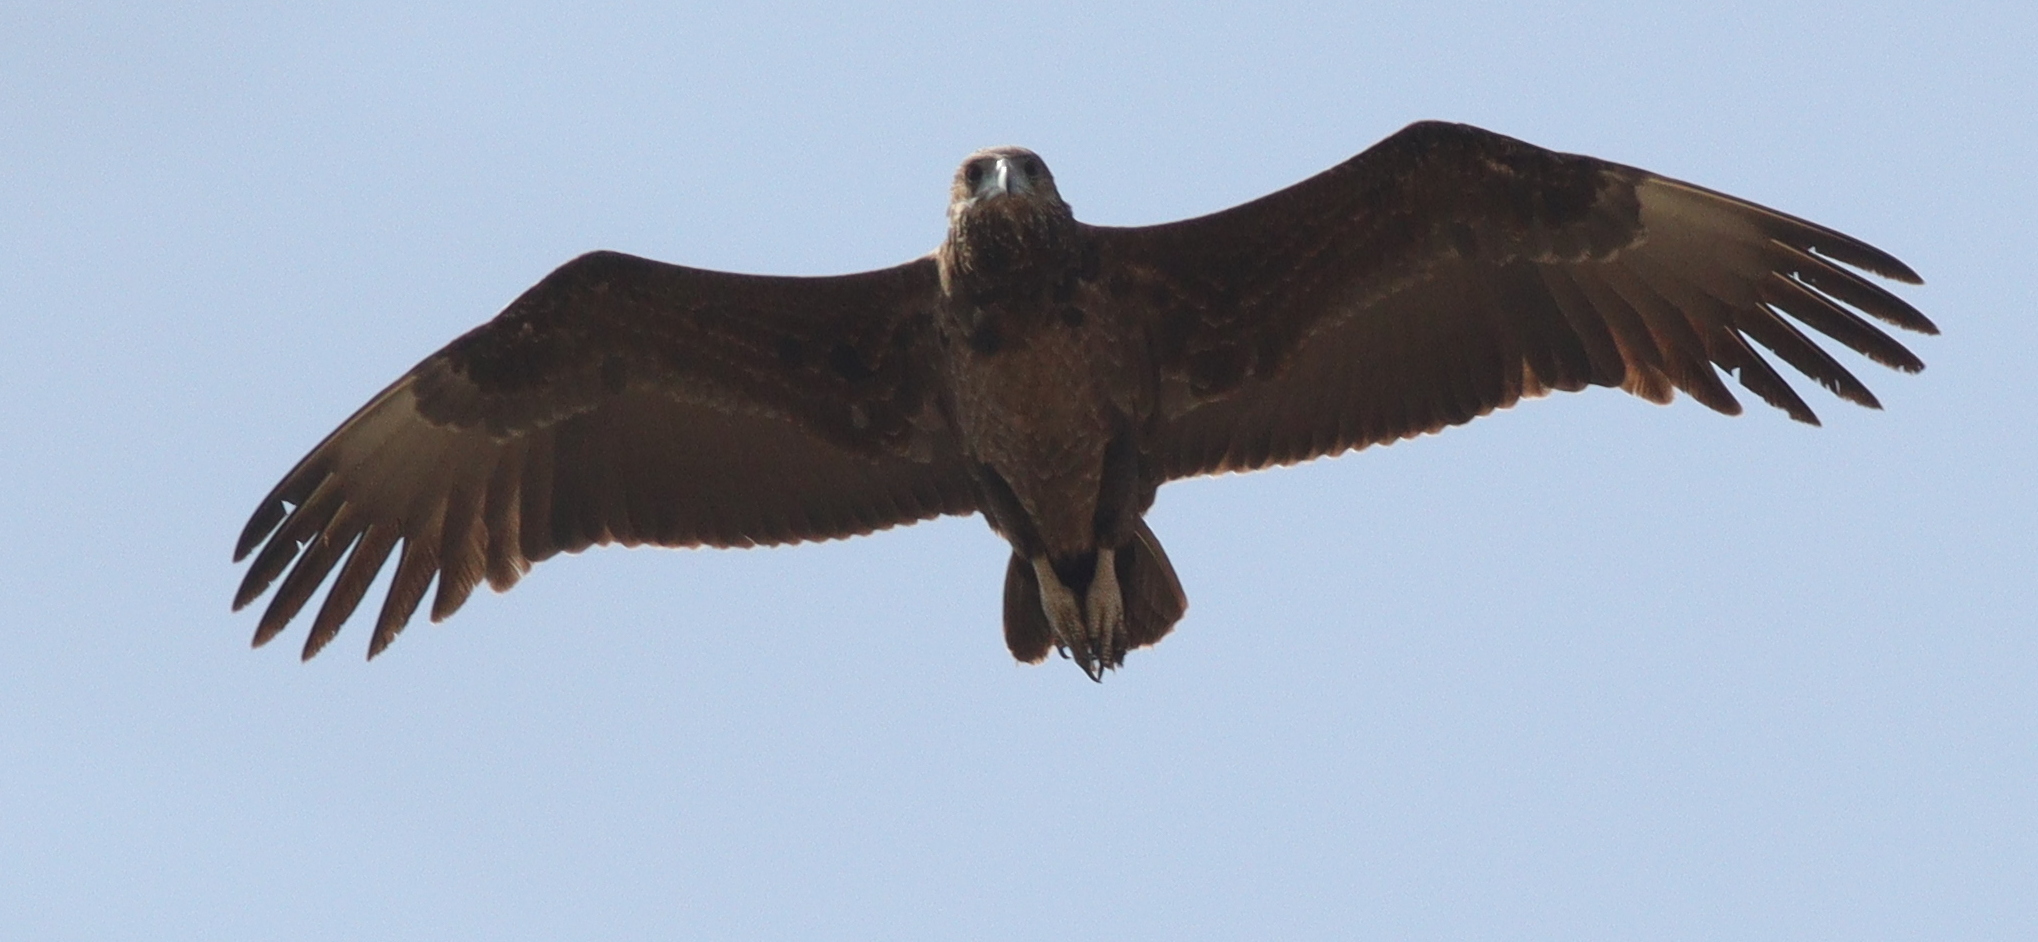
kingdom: Animalia
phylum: Chordata
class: Aves
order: Accipitriformes
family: Accipitridae
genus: Terathopius
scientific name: Terathopius ecaudatus
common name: Bateleur
